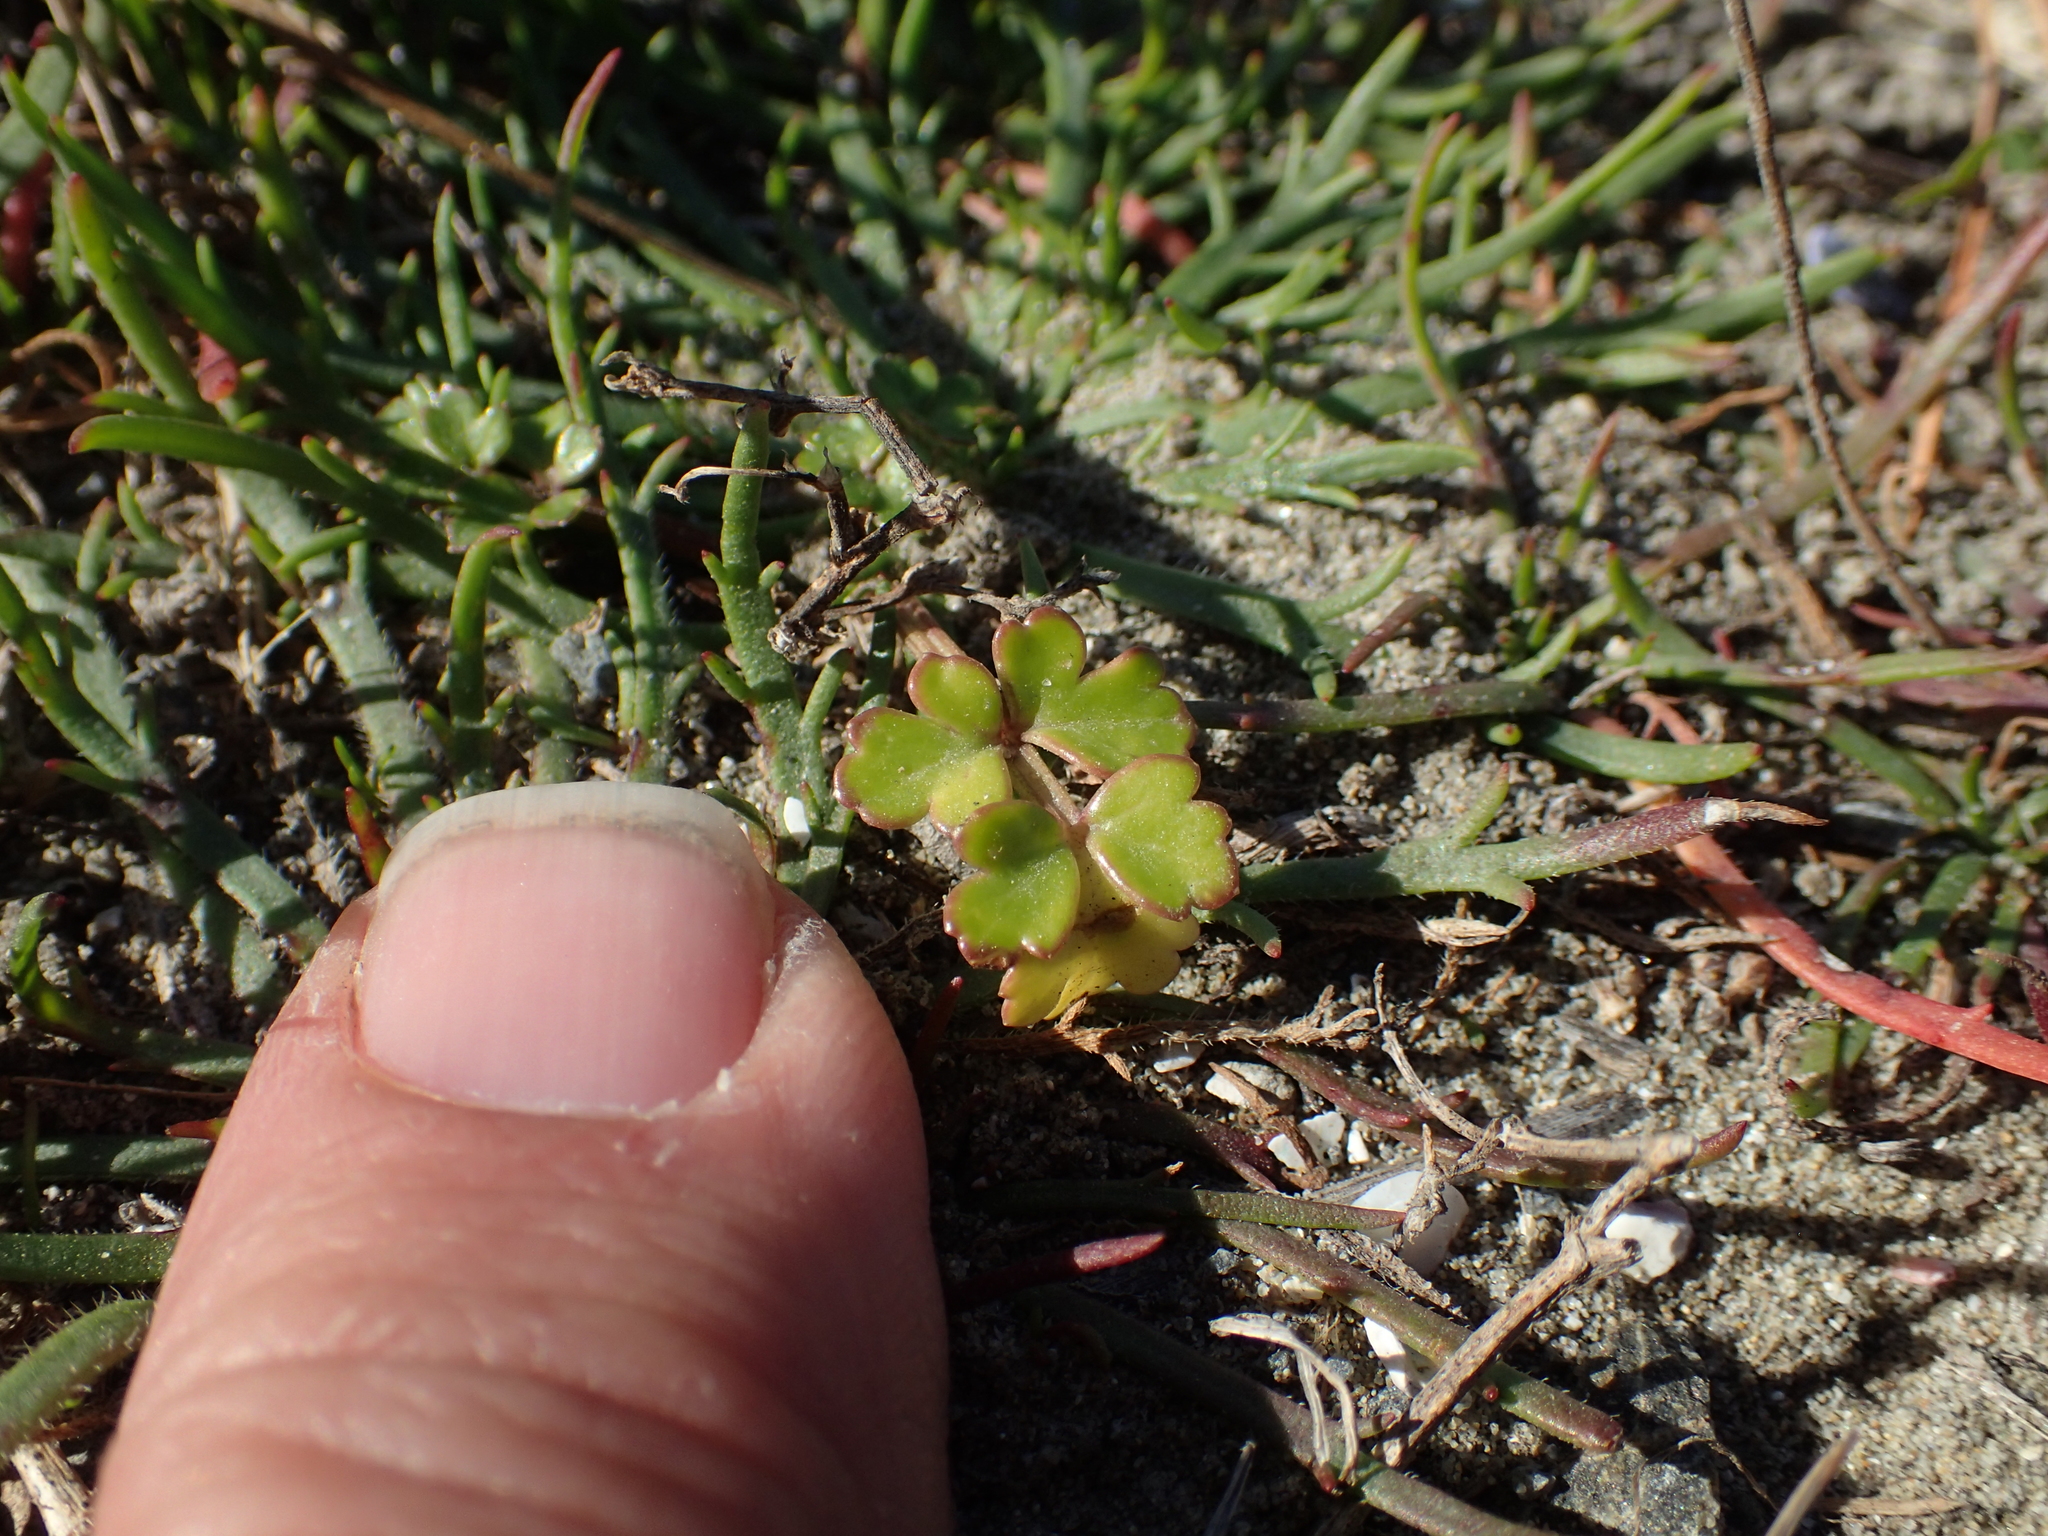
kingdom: Plantae
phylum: Tracheophyta
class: Magnoliopsida
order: Apiales
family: Apiaceae
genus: Apium
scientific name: Apium prostratum
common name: Prostrate marshwort
